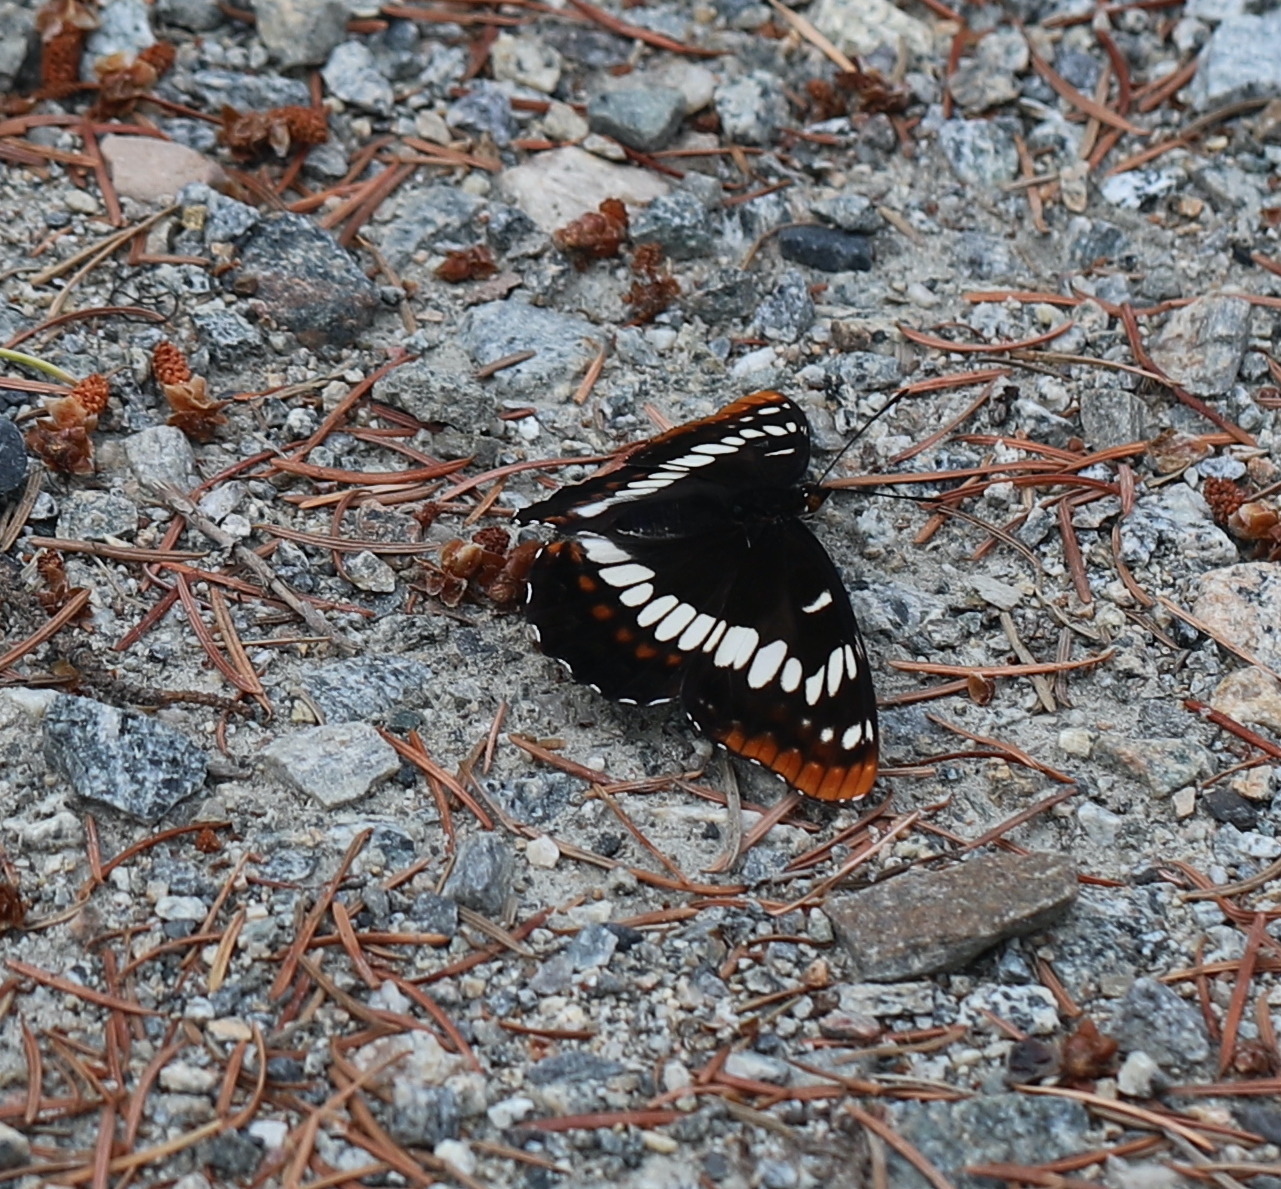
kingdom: Animalia
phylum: Arthropoda
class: Insecta
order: Lepidoptera
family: Nymphalidae
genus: Limenitis
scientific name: Limenitis lorquini
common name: Lorquin's admiral
